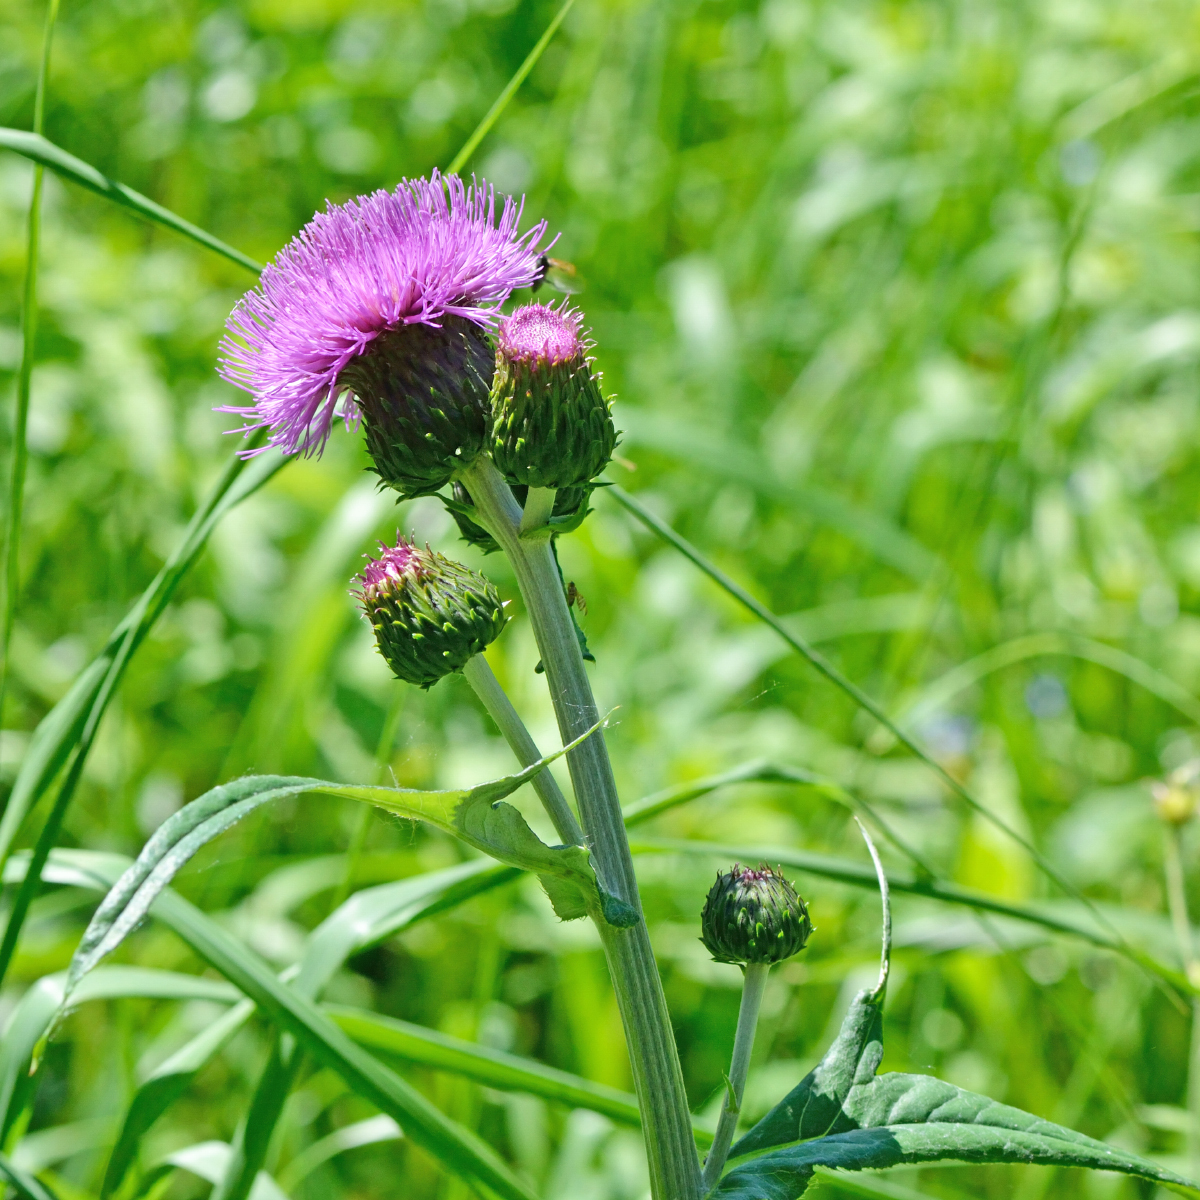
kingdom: Plantae
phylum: Tracheophyta
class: Magnoliopsida
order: Asterales
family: Asteraceae
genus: Cirsium
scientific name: Cirsium heterophyllum
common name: Melancholy thistle
